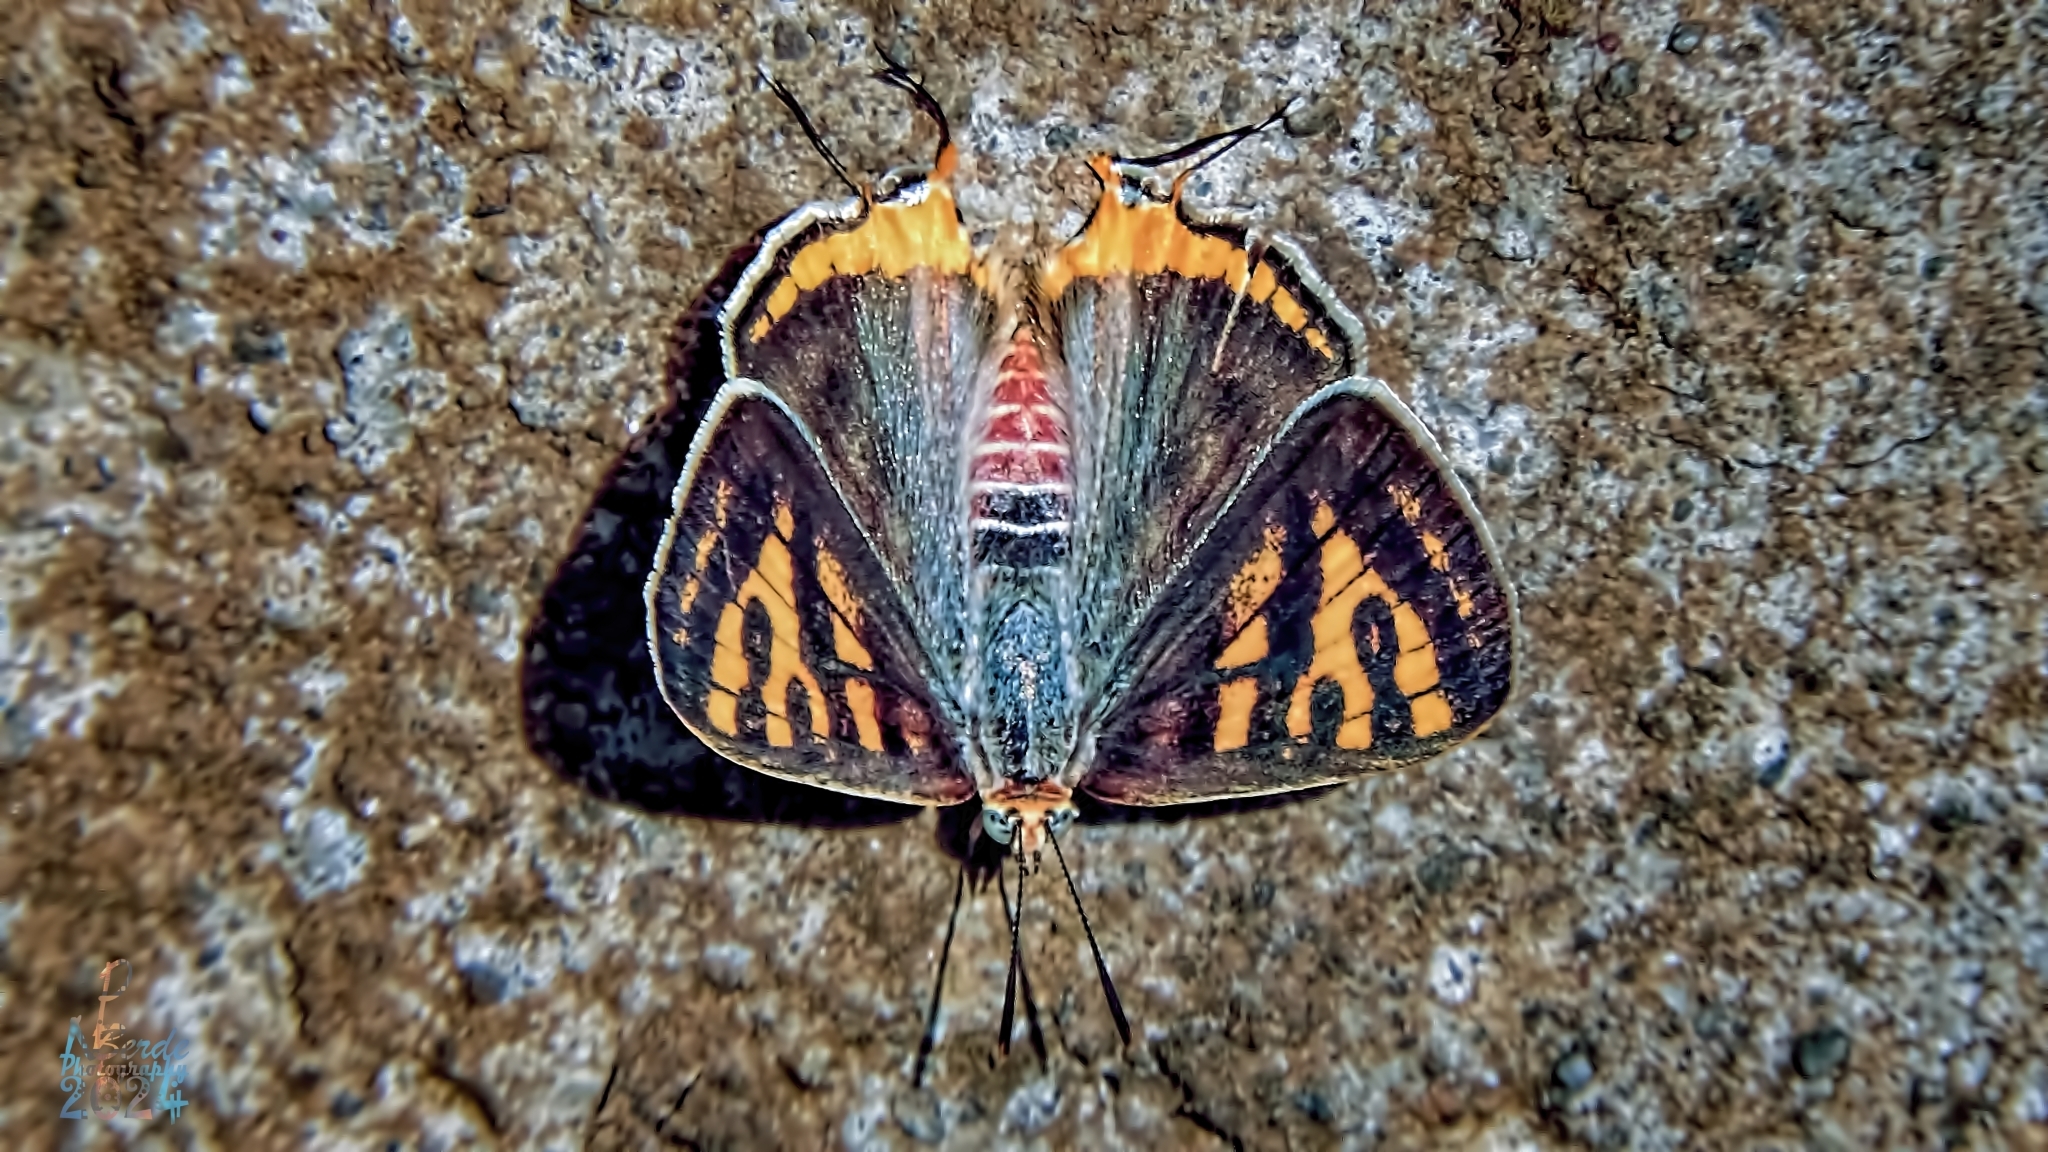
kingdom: Animalia
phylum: Arthropoda
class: Insecta
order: Lepidoptera
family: Lycaenidae
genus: Cigaritis
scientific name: Cigaritis vulcanus
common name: Common silverline
